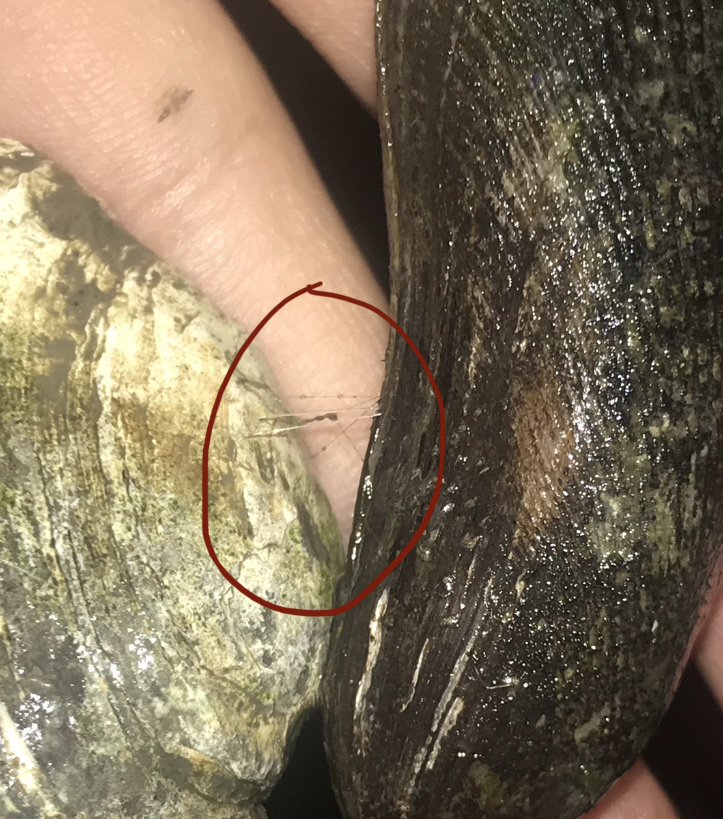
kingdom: Animalia
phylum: Mollusca
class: Bivalvia
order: Mytilida
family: Mytilidae
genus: Geukensia
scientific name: Geukensia demissa
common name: Ribbed mussel
